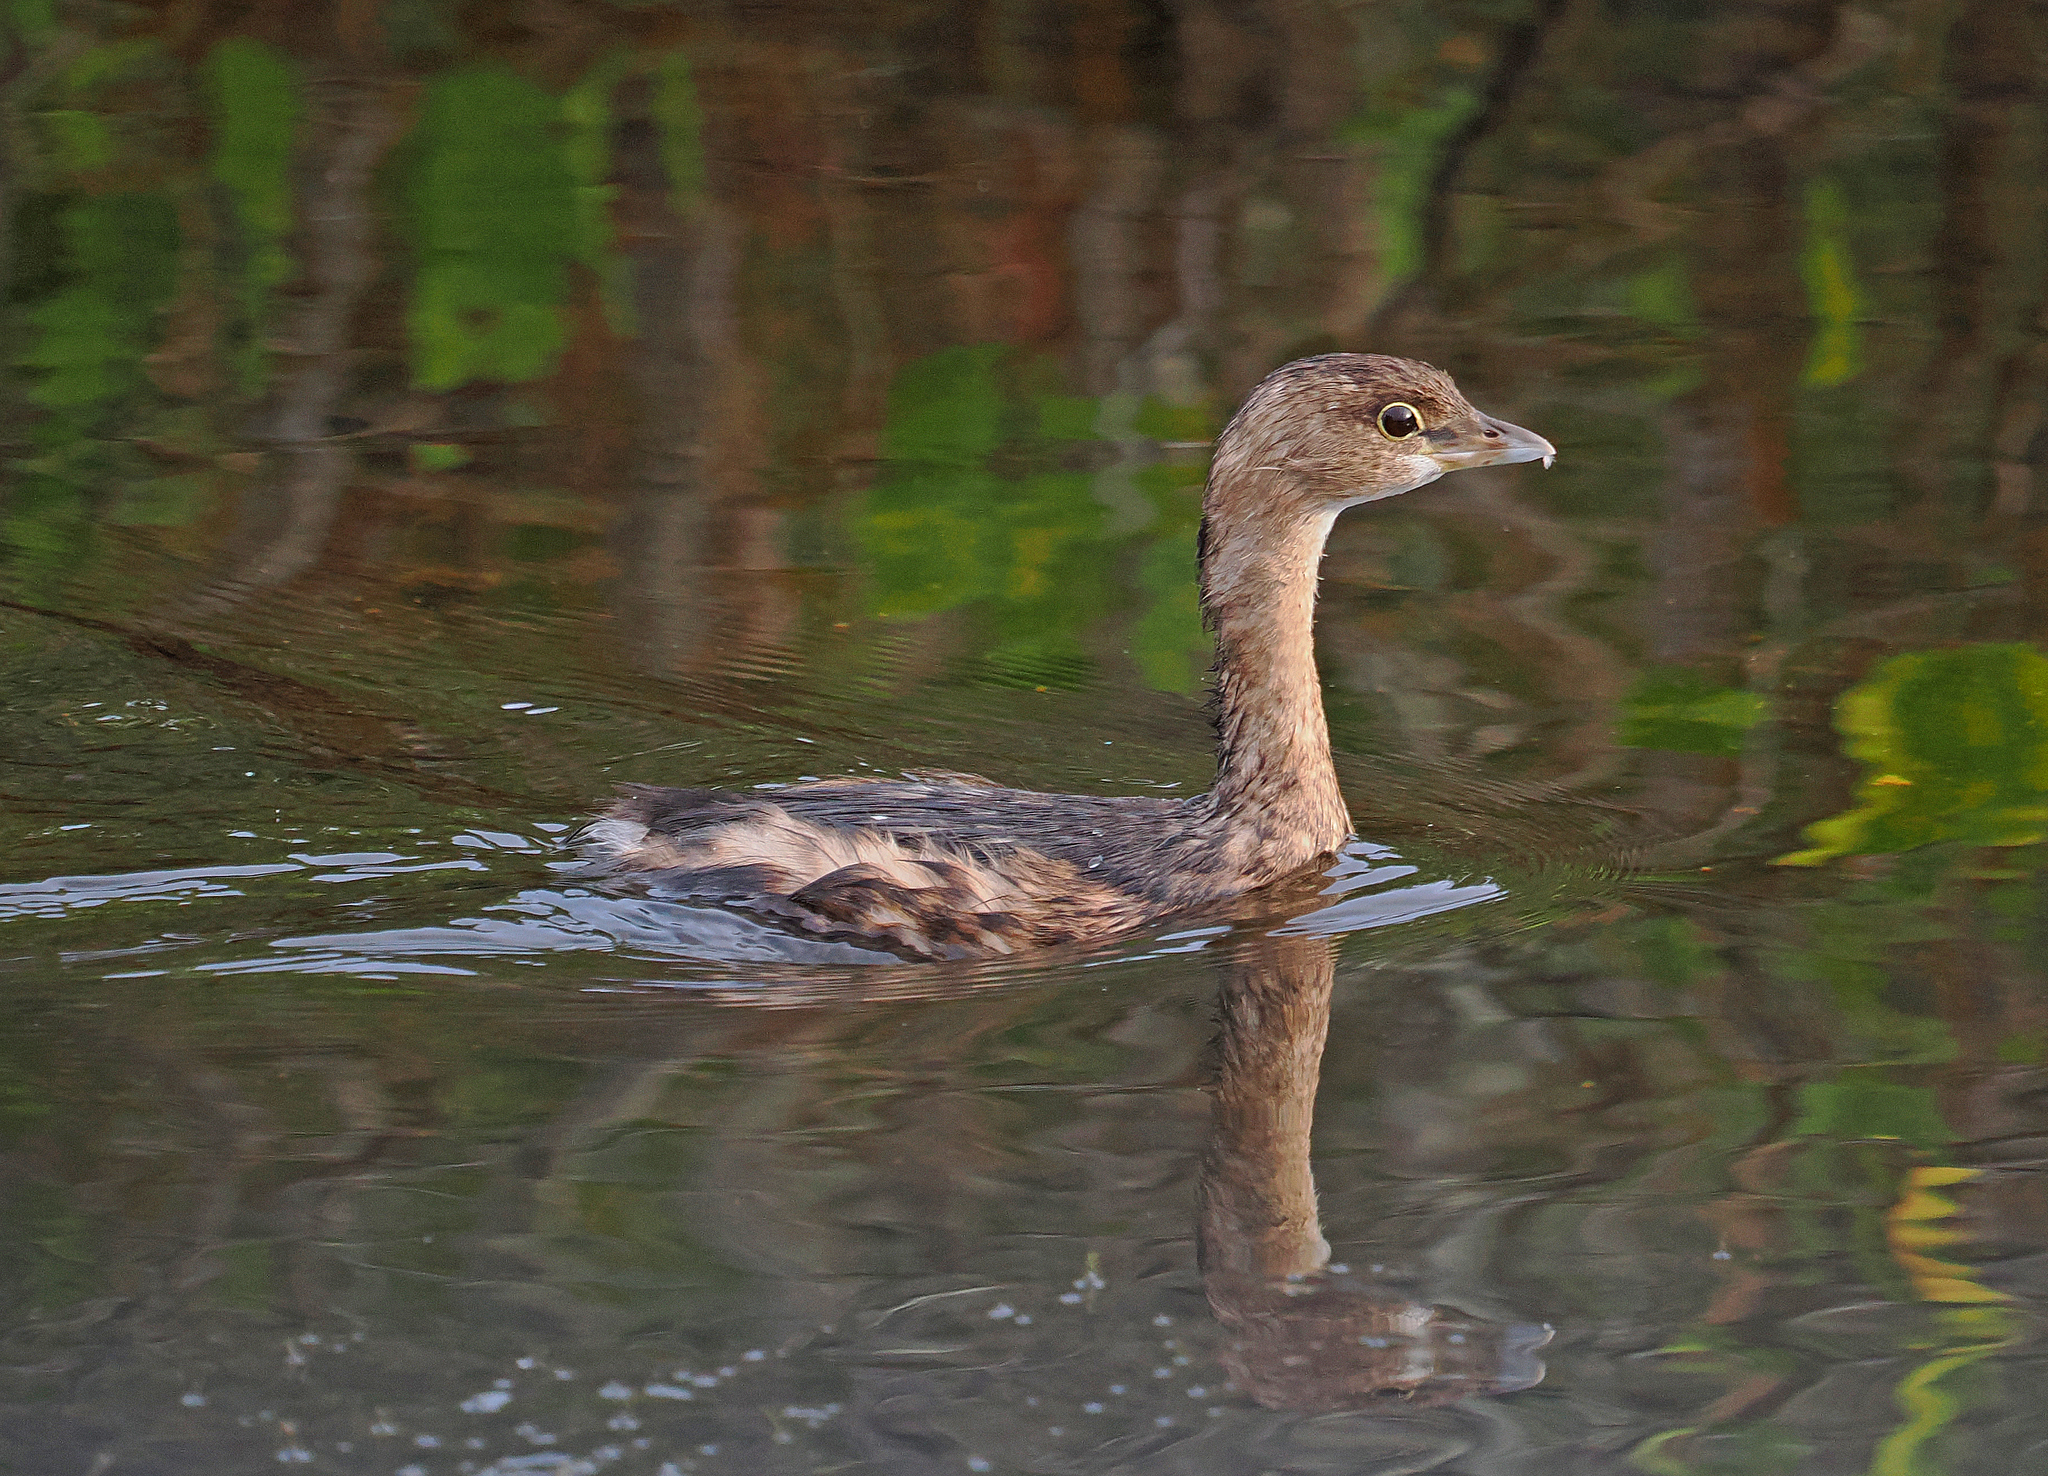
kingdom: Animalia
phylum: Chordata
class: Aves
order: Podicipediformes
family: Podicipedidae
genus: Podilymbus
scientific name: Podilymbus podiceps
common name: Pied-billed grebe
